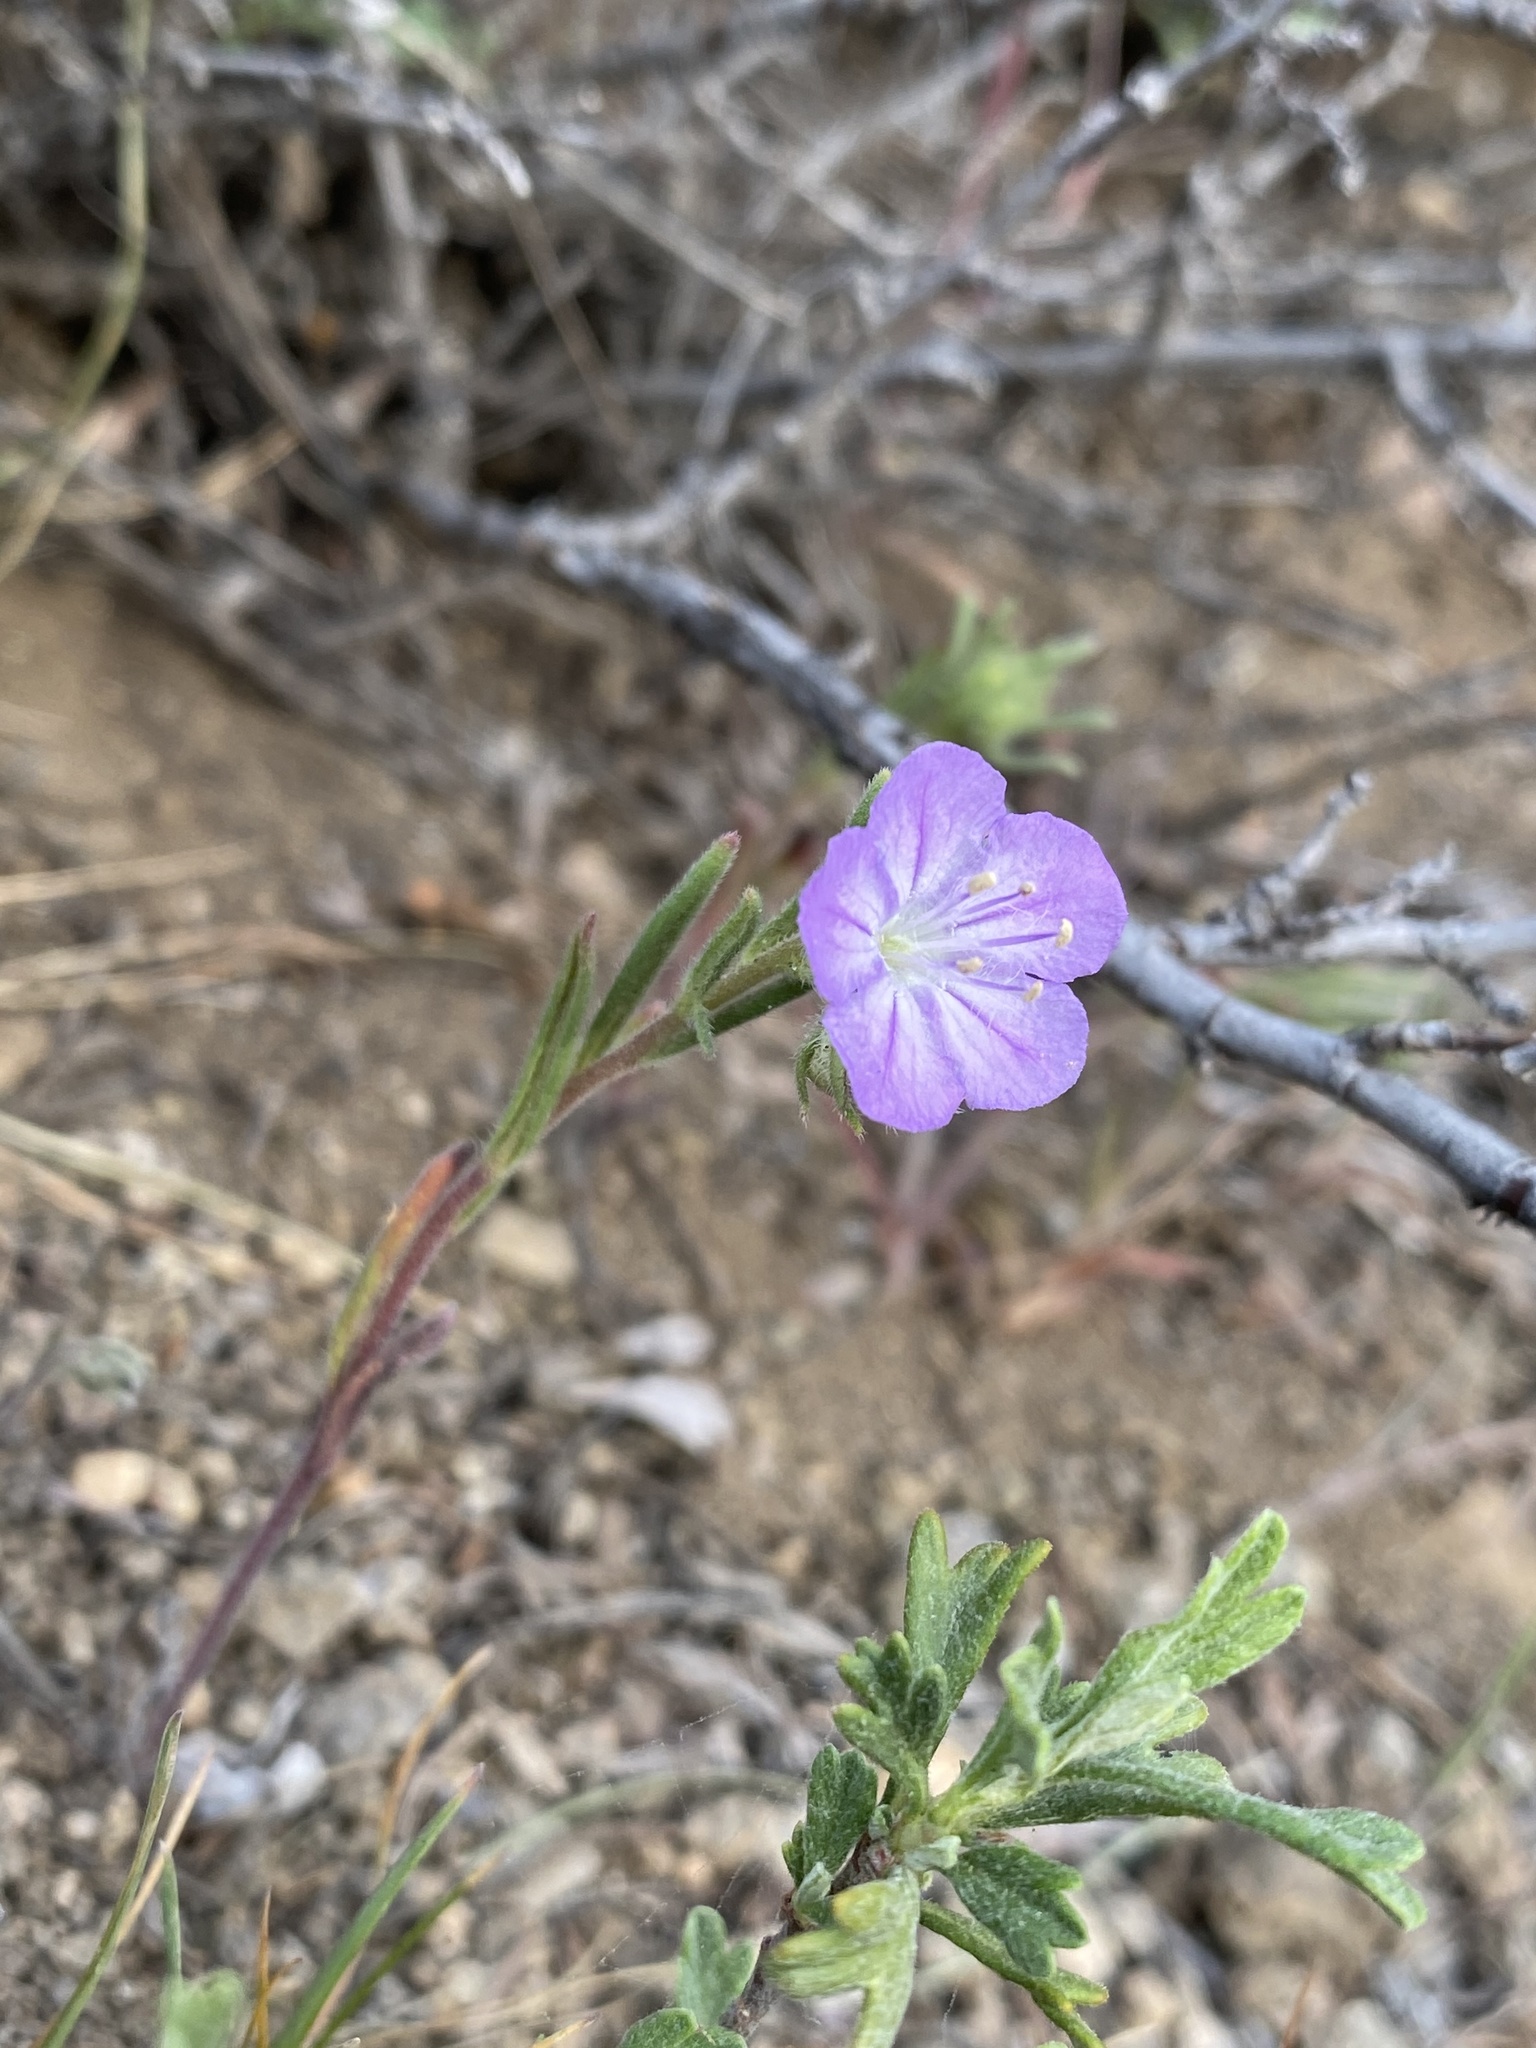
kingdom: Plantae
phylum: Tracheophyta
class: Magnoliopsida
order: Boraginales
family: Hydrophyllaceae
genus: Phacelia
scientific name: Phacelia linearis
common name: Linear-leaved phacelia
